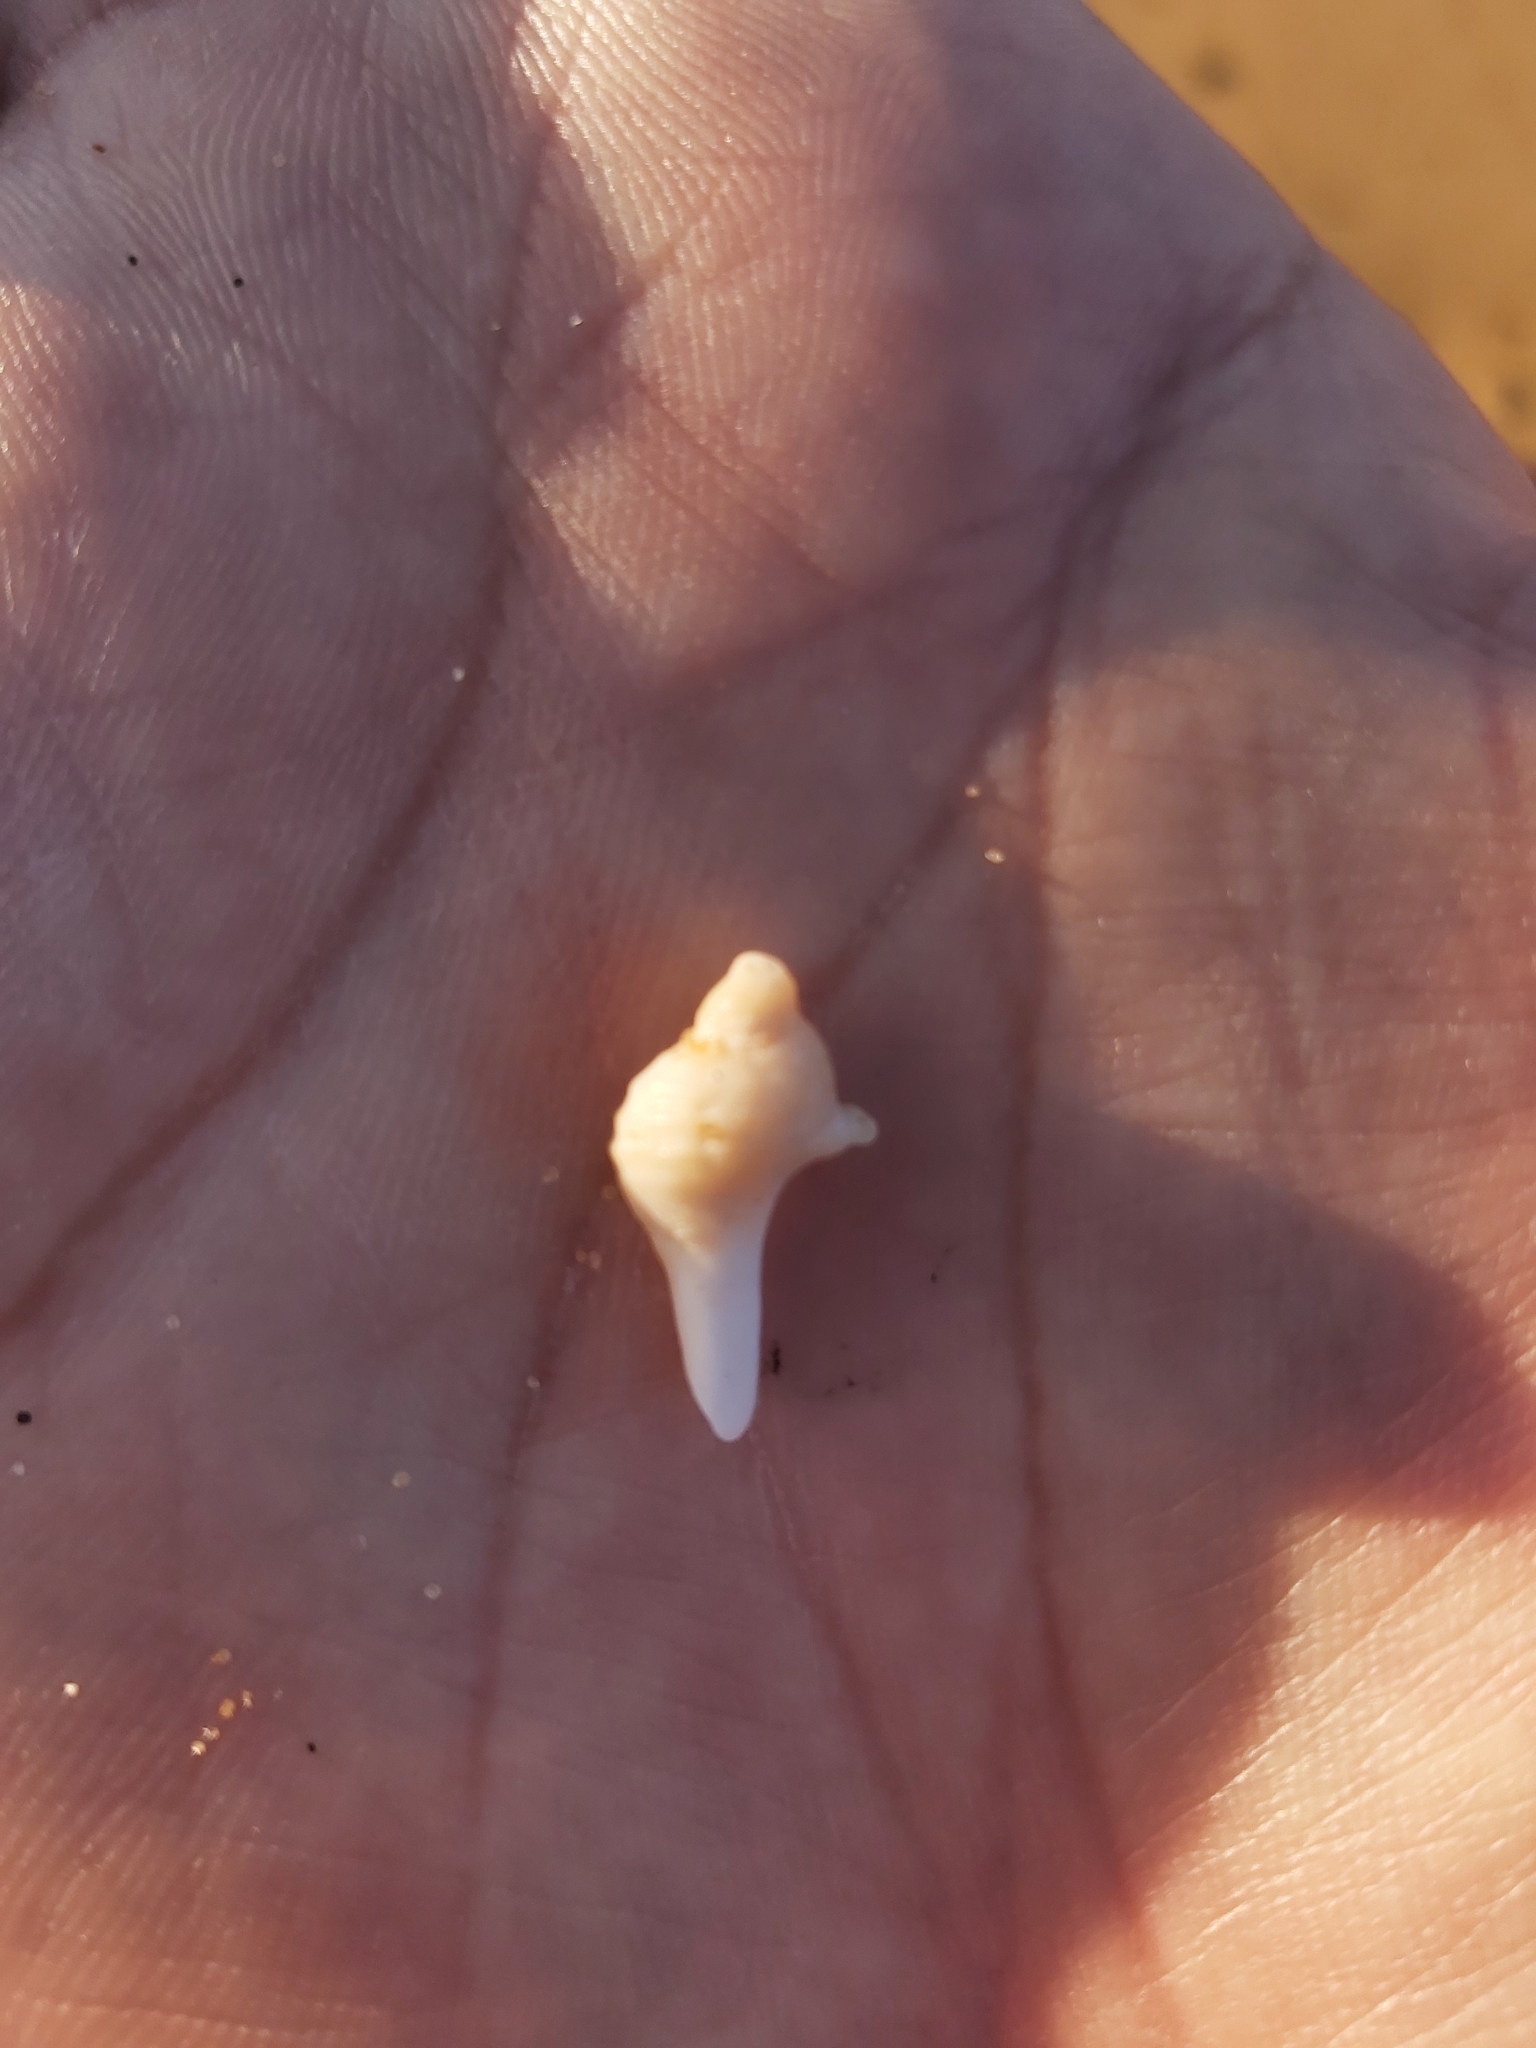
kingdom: Animalia
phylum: Mollusca
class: Gastropoda
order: Neogastropoda
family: Muricidae
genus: Dicathais
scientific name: Dicathais orbita
